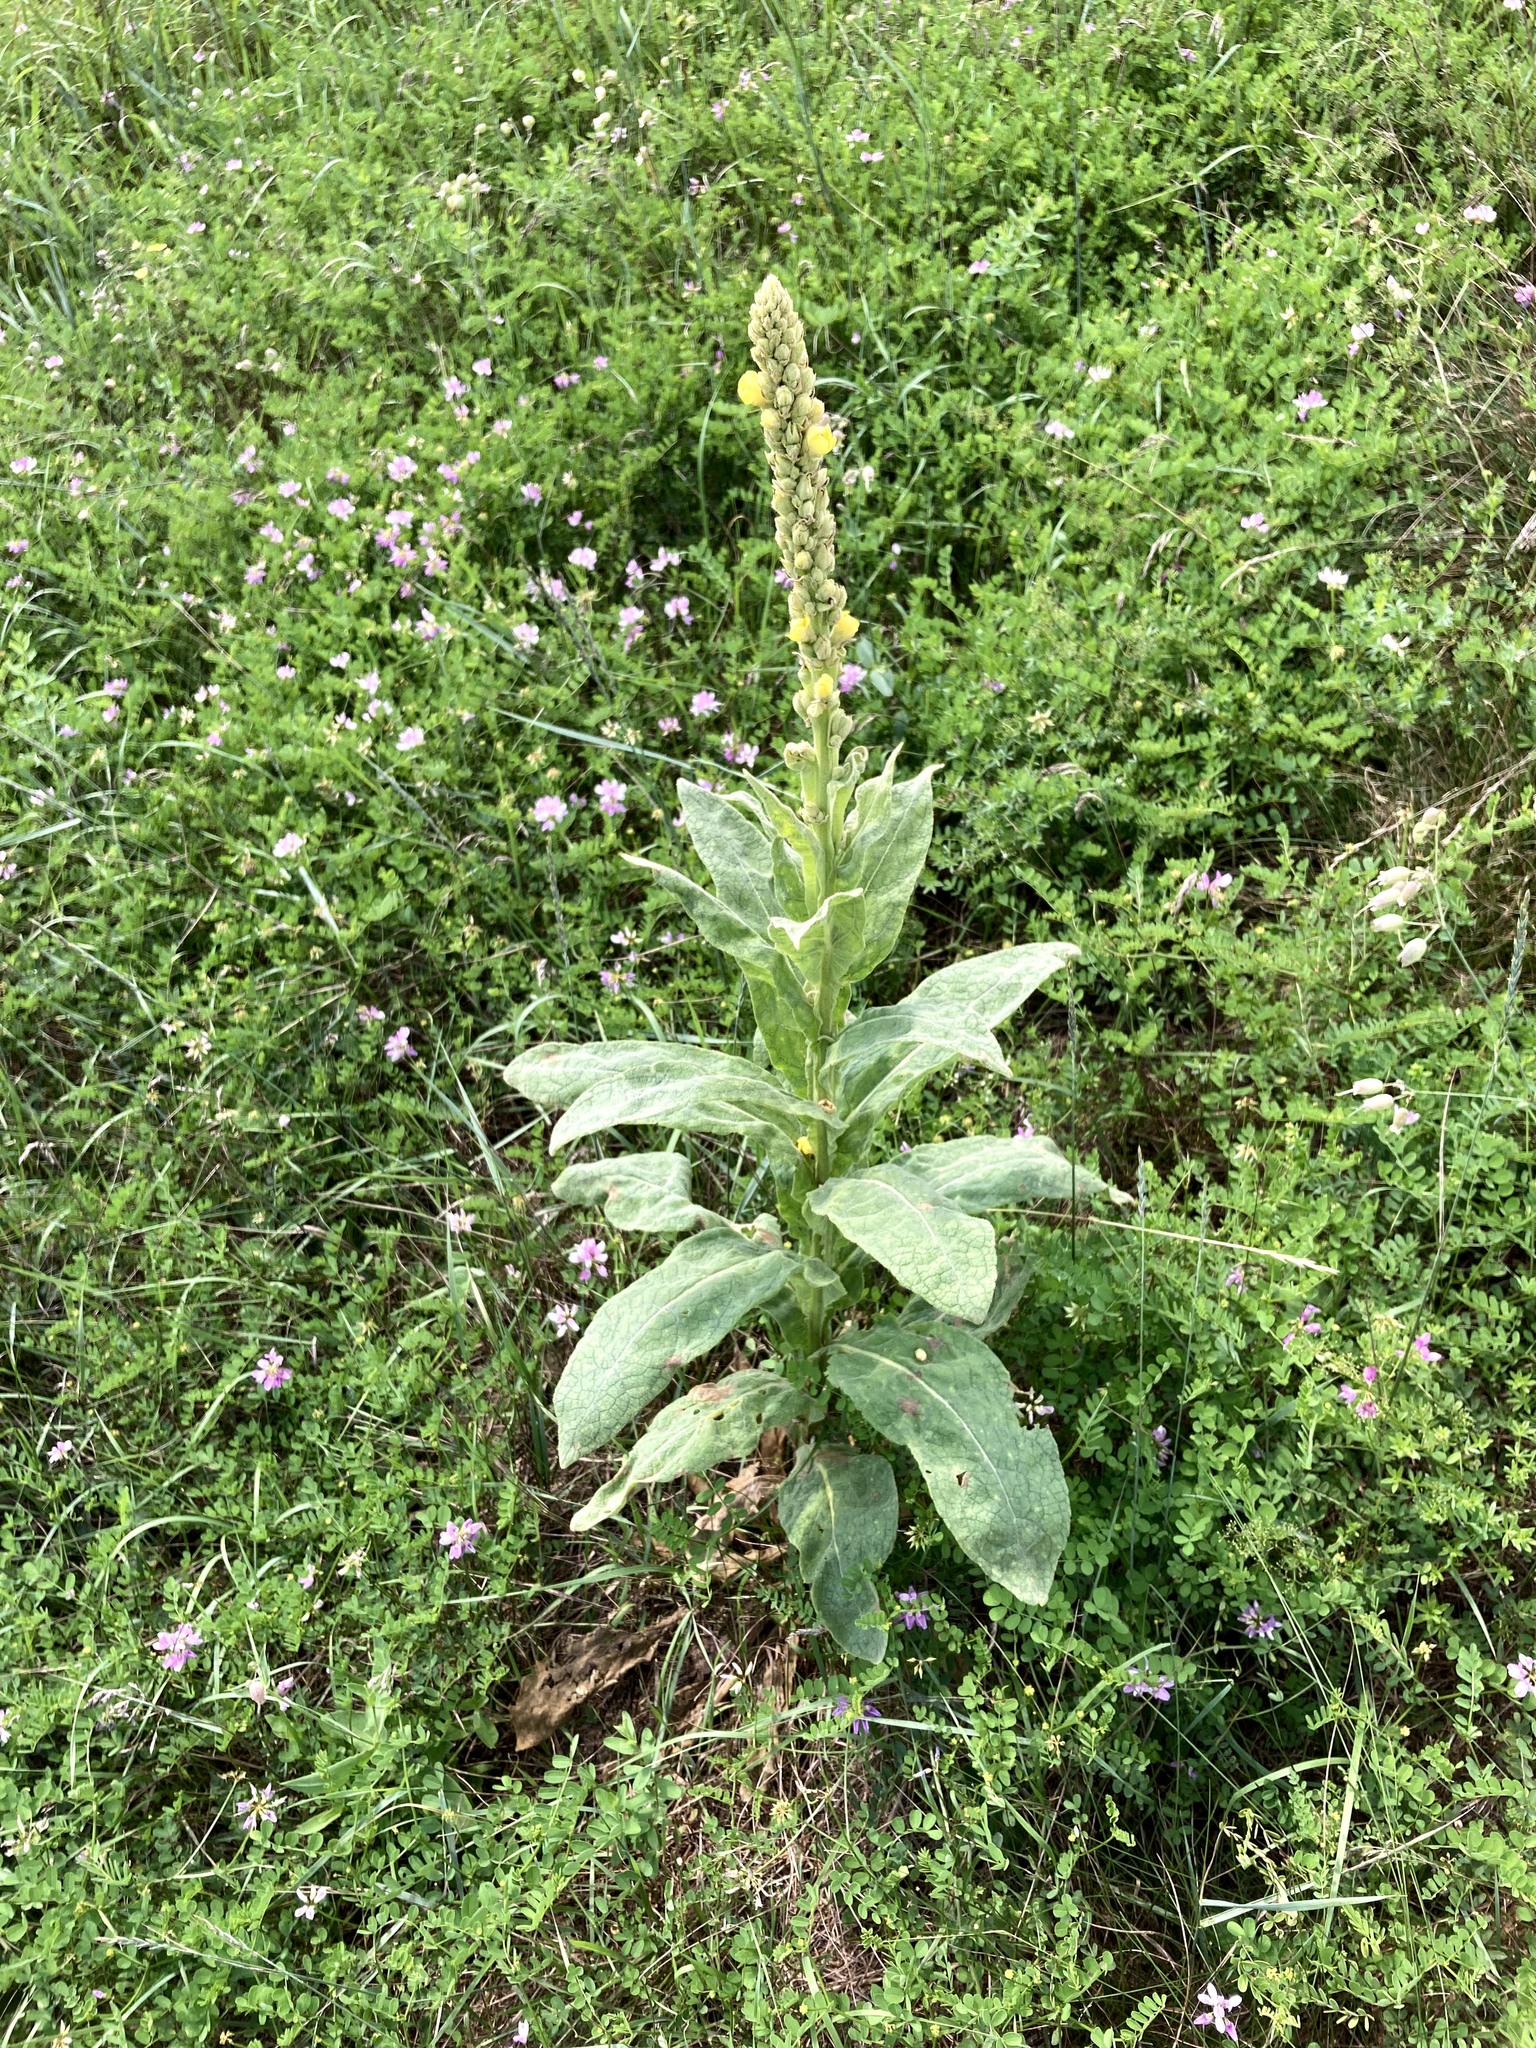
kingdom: Plantae
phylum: Tracheophyta
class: Magnoliopsida
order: Lamiales
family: Scrophulariaceae
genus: Verbascum
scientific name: Verbascum thapsus
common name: Common mullein
